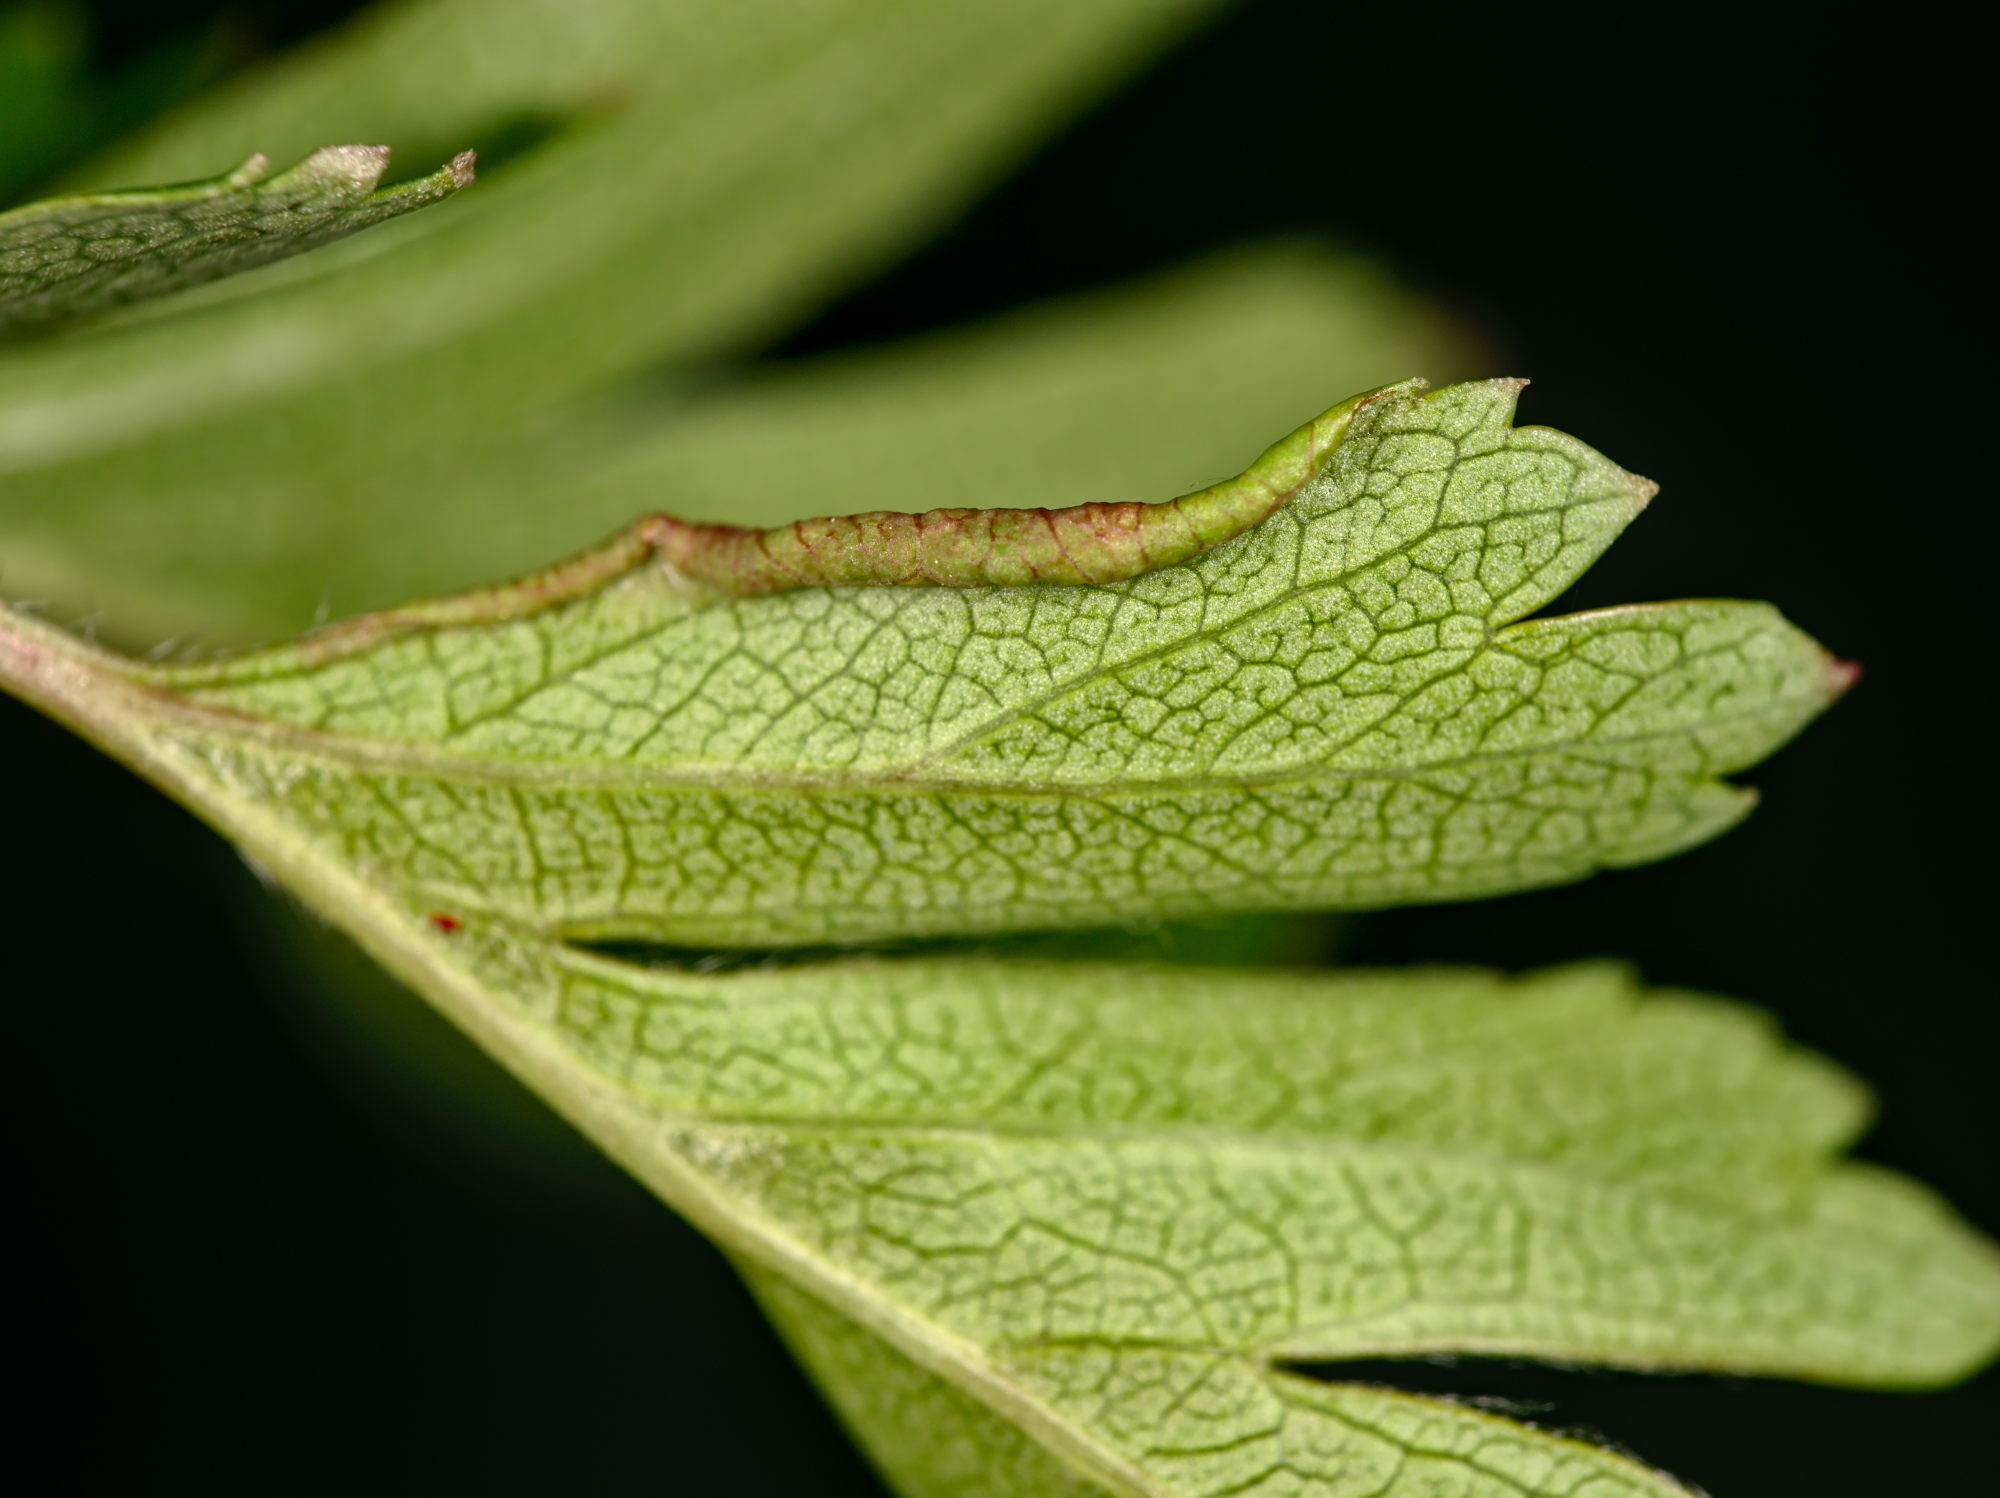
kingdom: Animalia
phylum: Arthropoda
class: Arachnida
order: Trombidiformes
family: Eriophyidae
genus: Phyllocoptes
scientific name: Phyllocoptes goniothorax
